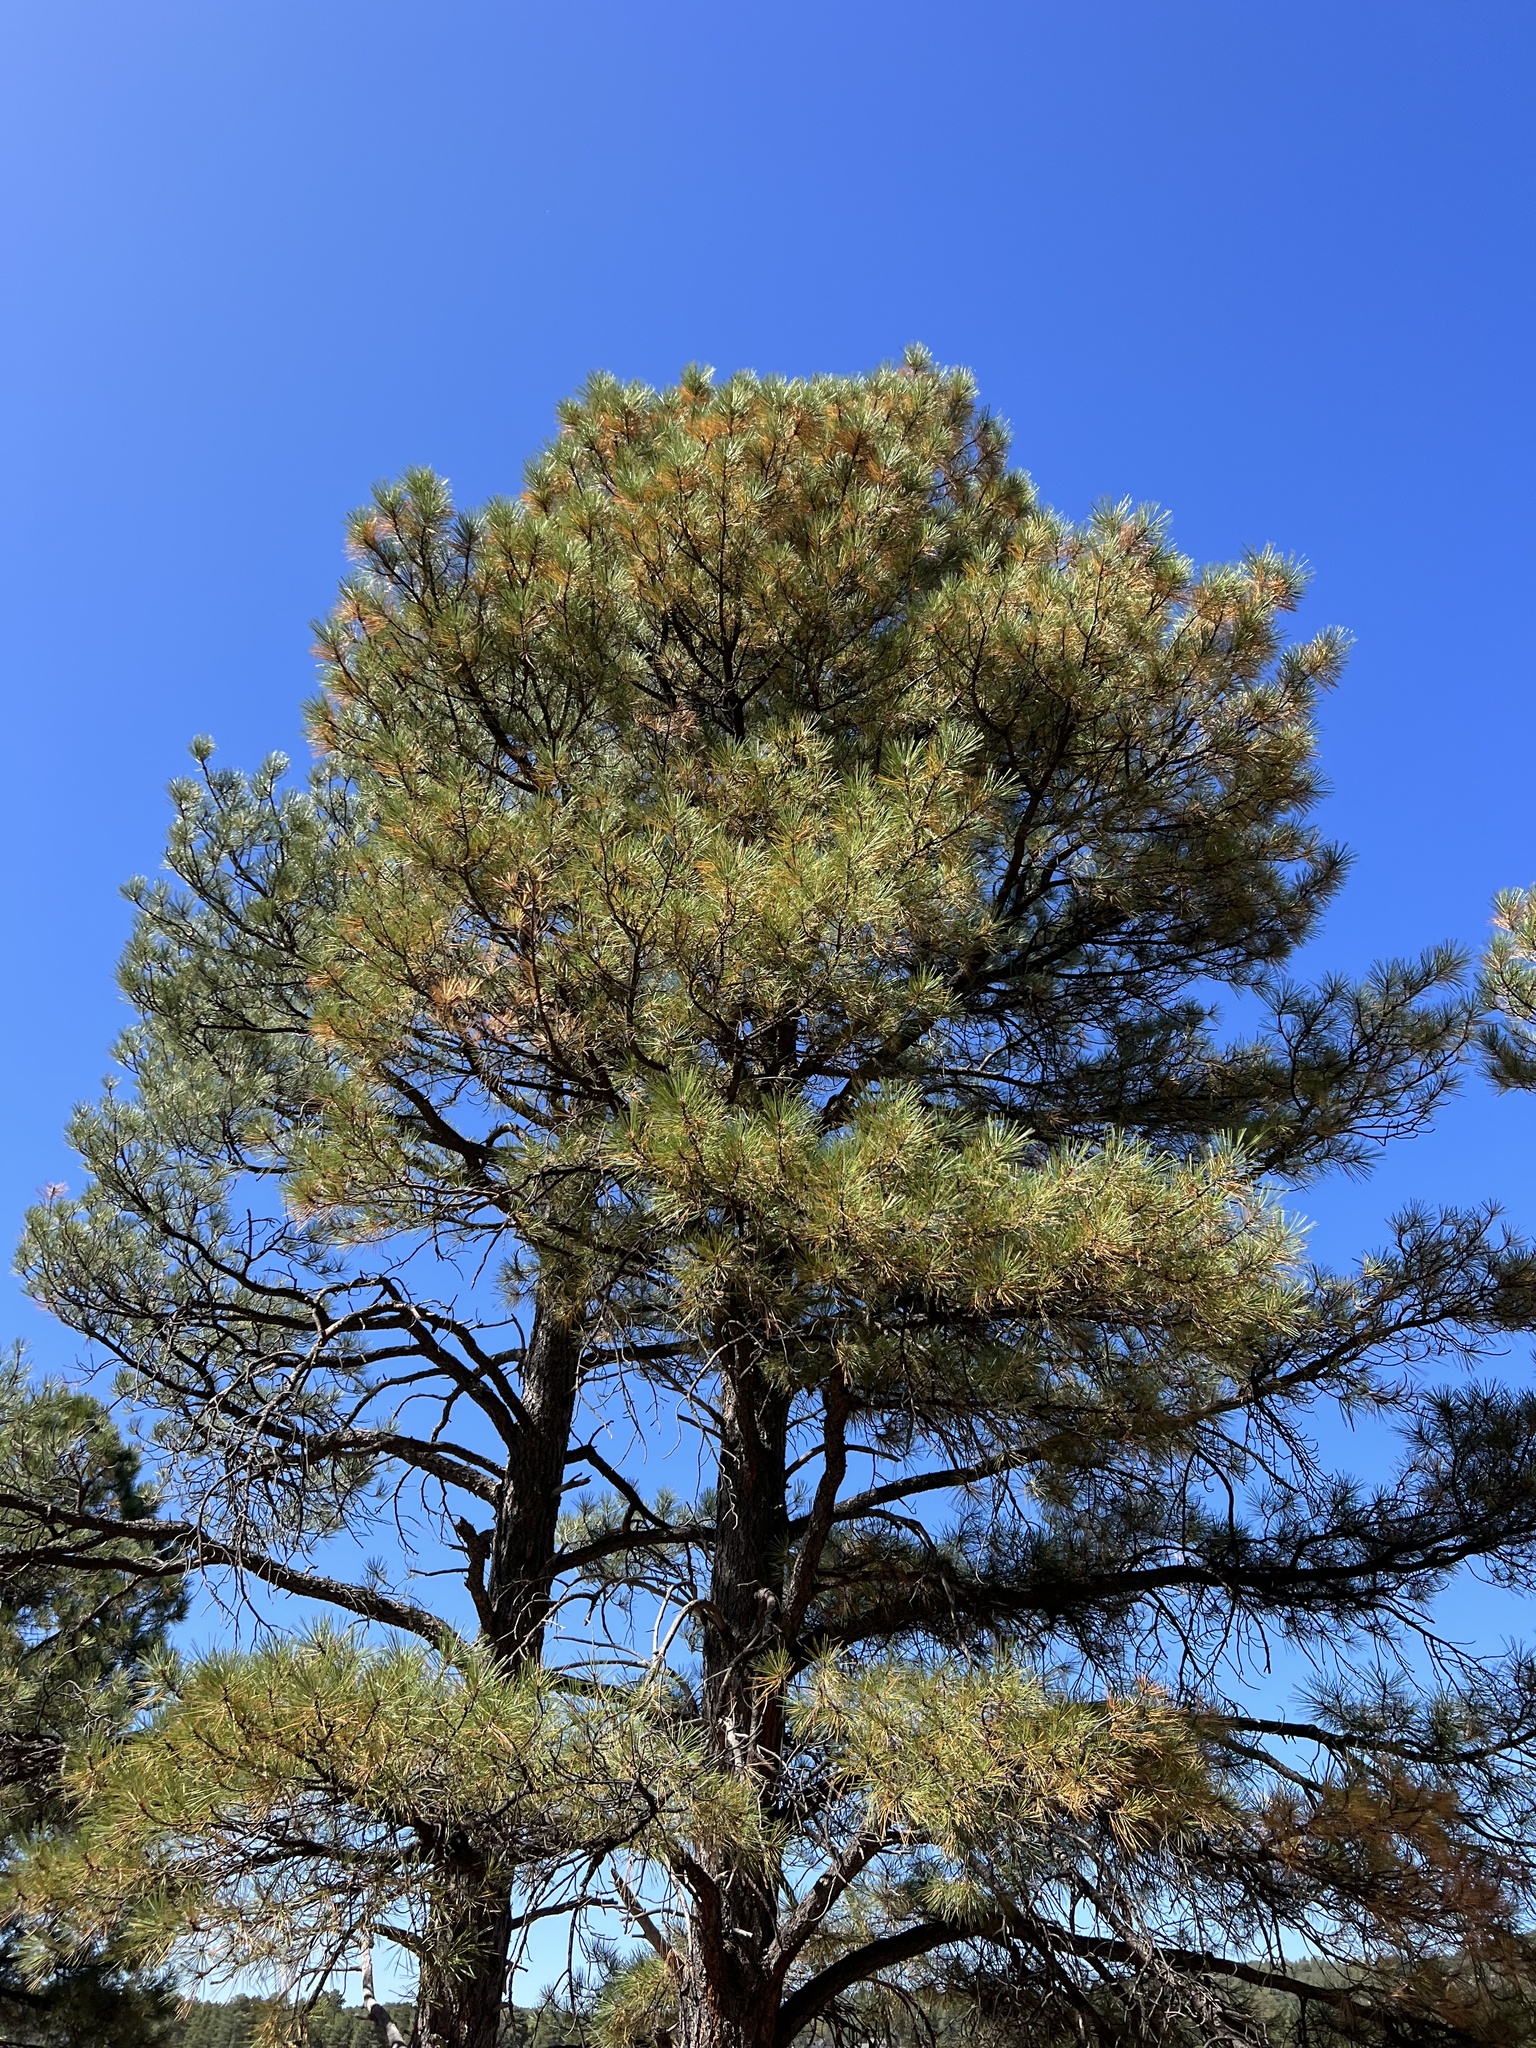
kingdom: Plantae
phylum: Tracheophyta
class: Pinopsida
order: Pinales
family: Pinaceae
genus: Pinus
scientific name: Pinus ponderosa
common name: Western yellow-pine
